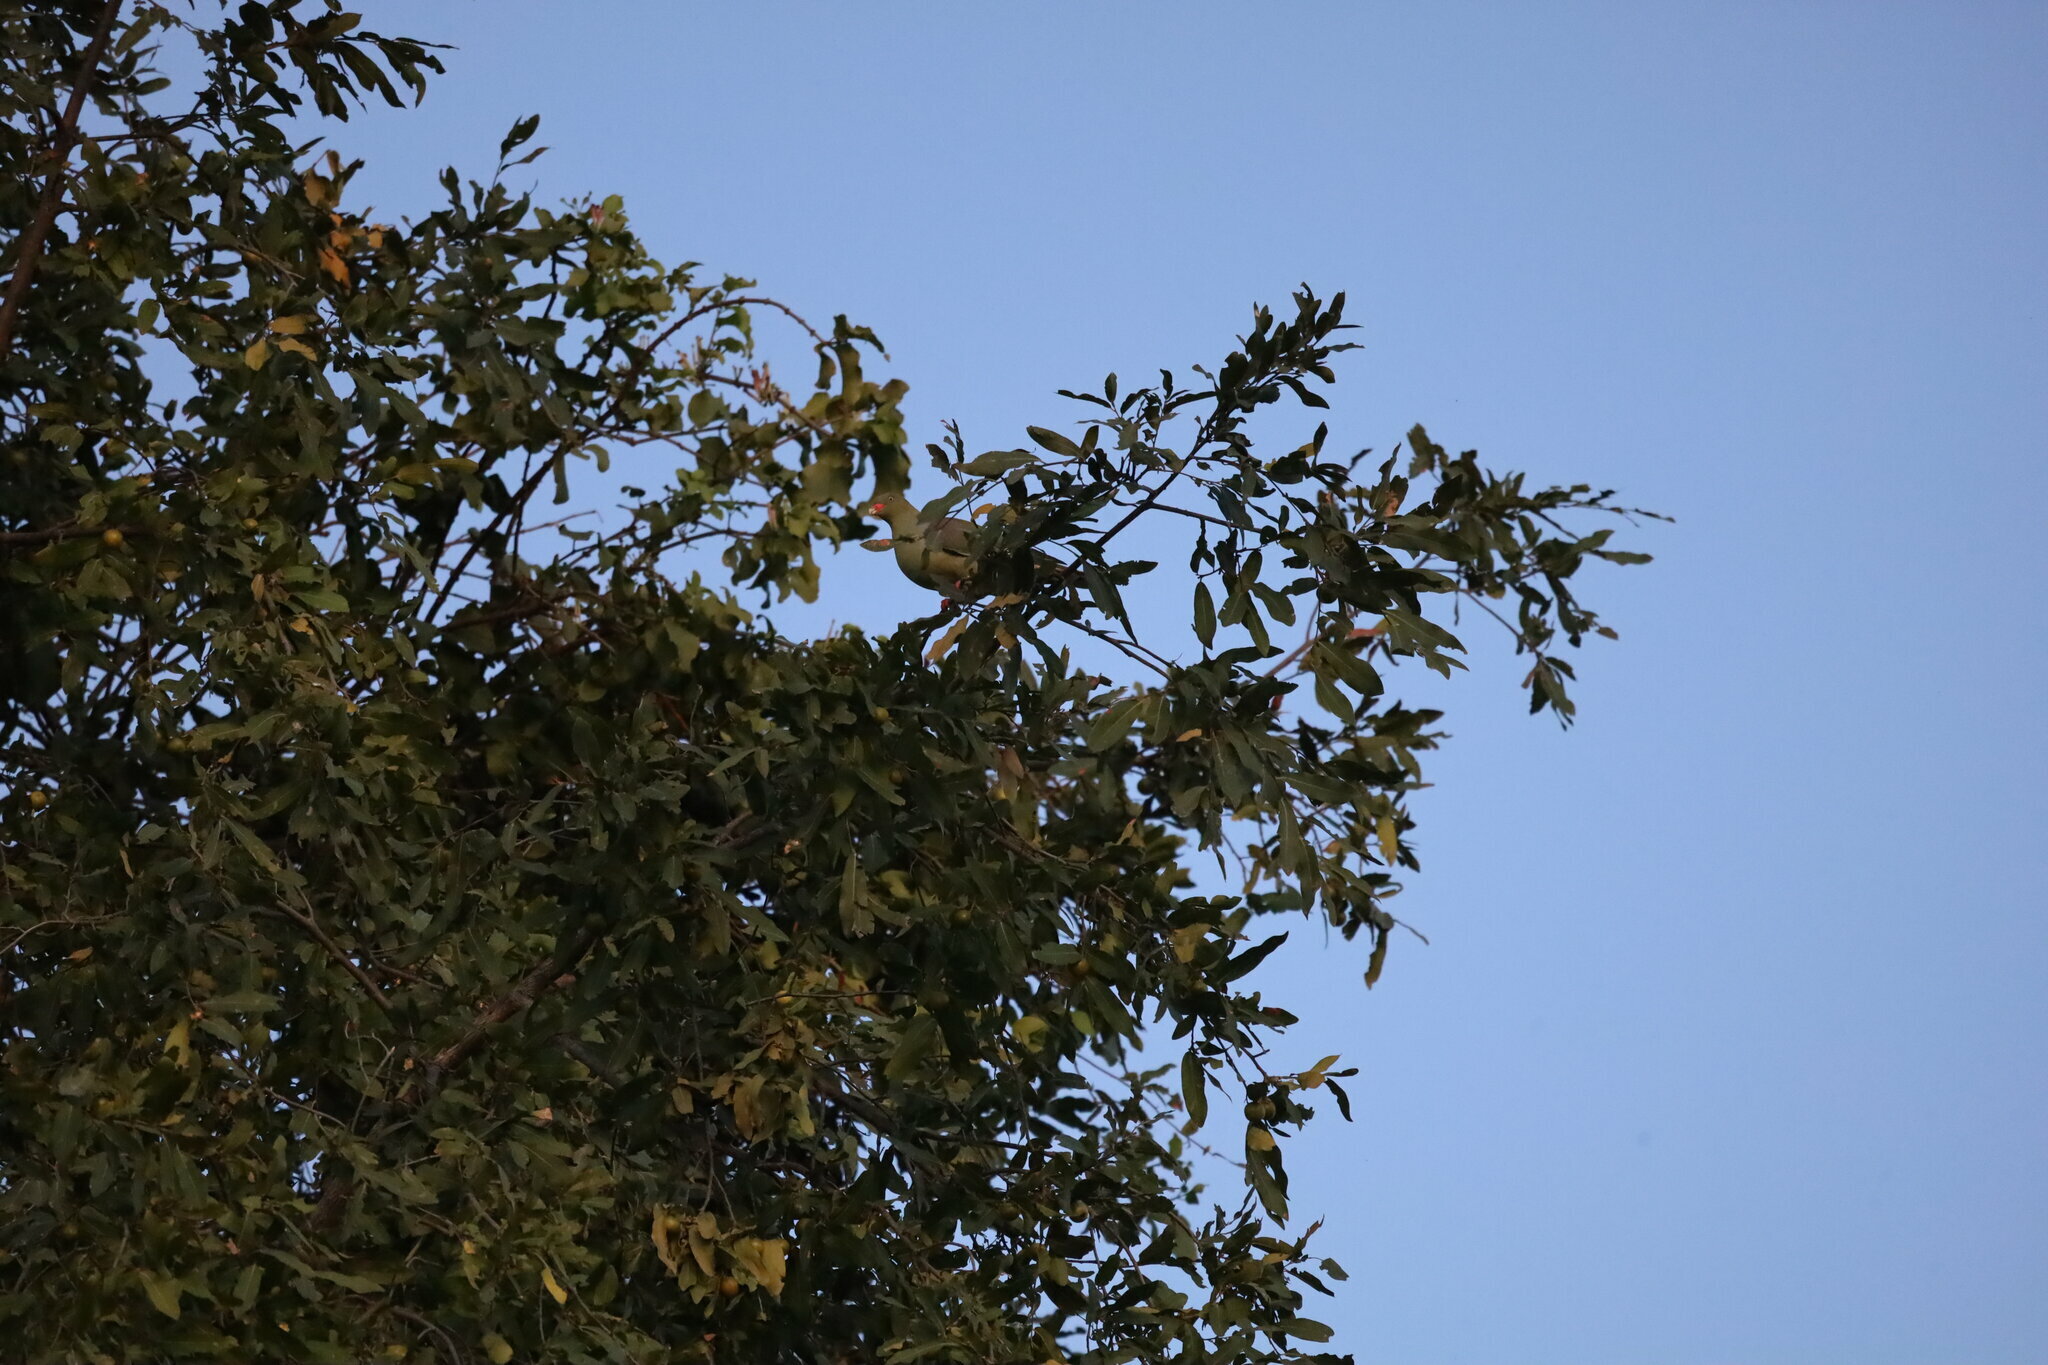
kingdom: Animalia
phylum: Chordata
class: Aves
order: Columbiformes
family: Columbidae
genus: Treron
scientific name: Treron calvus
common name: African green pigeon
